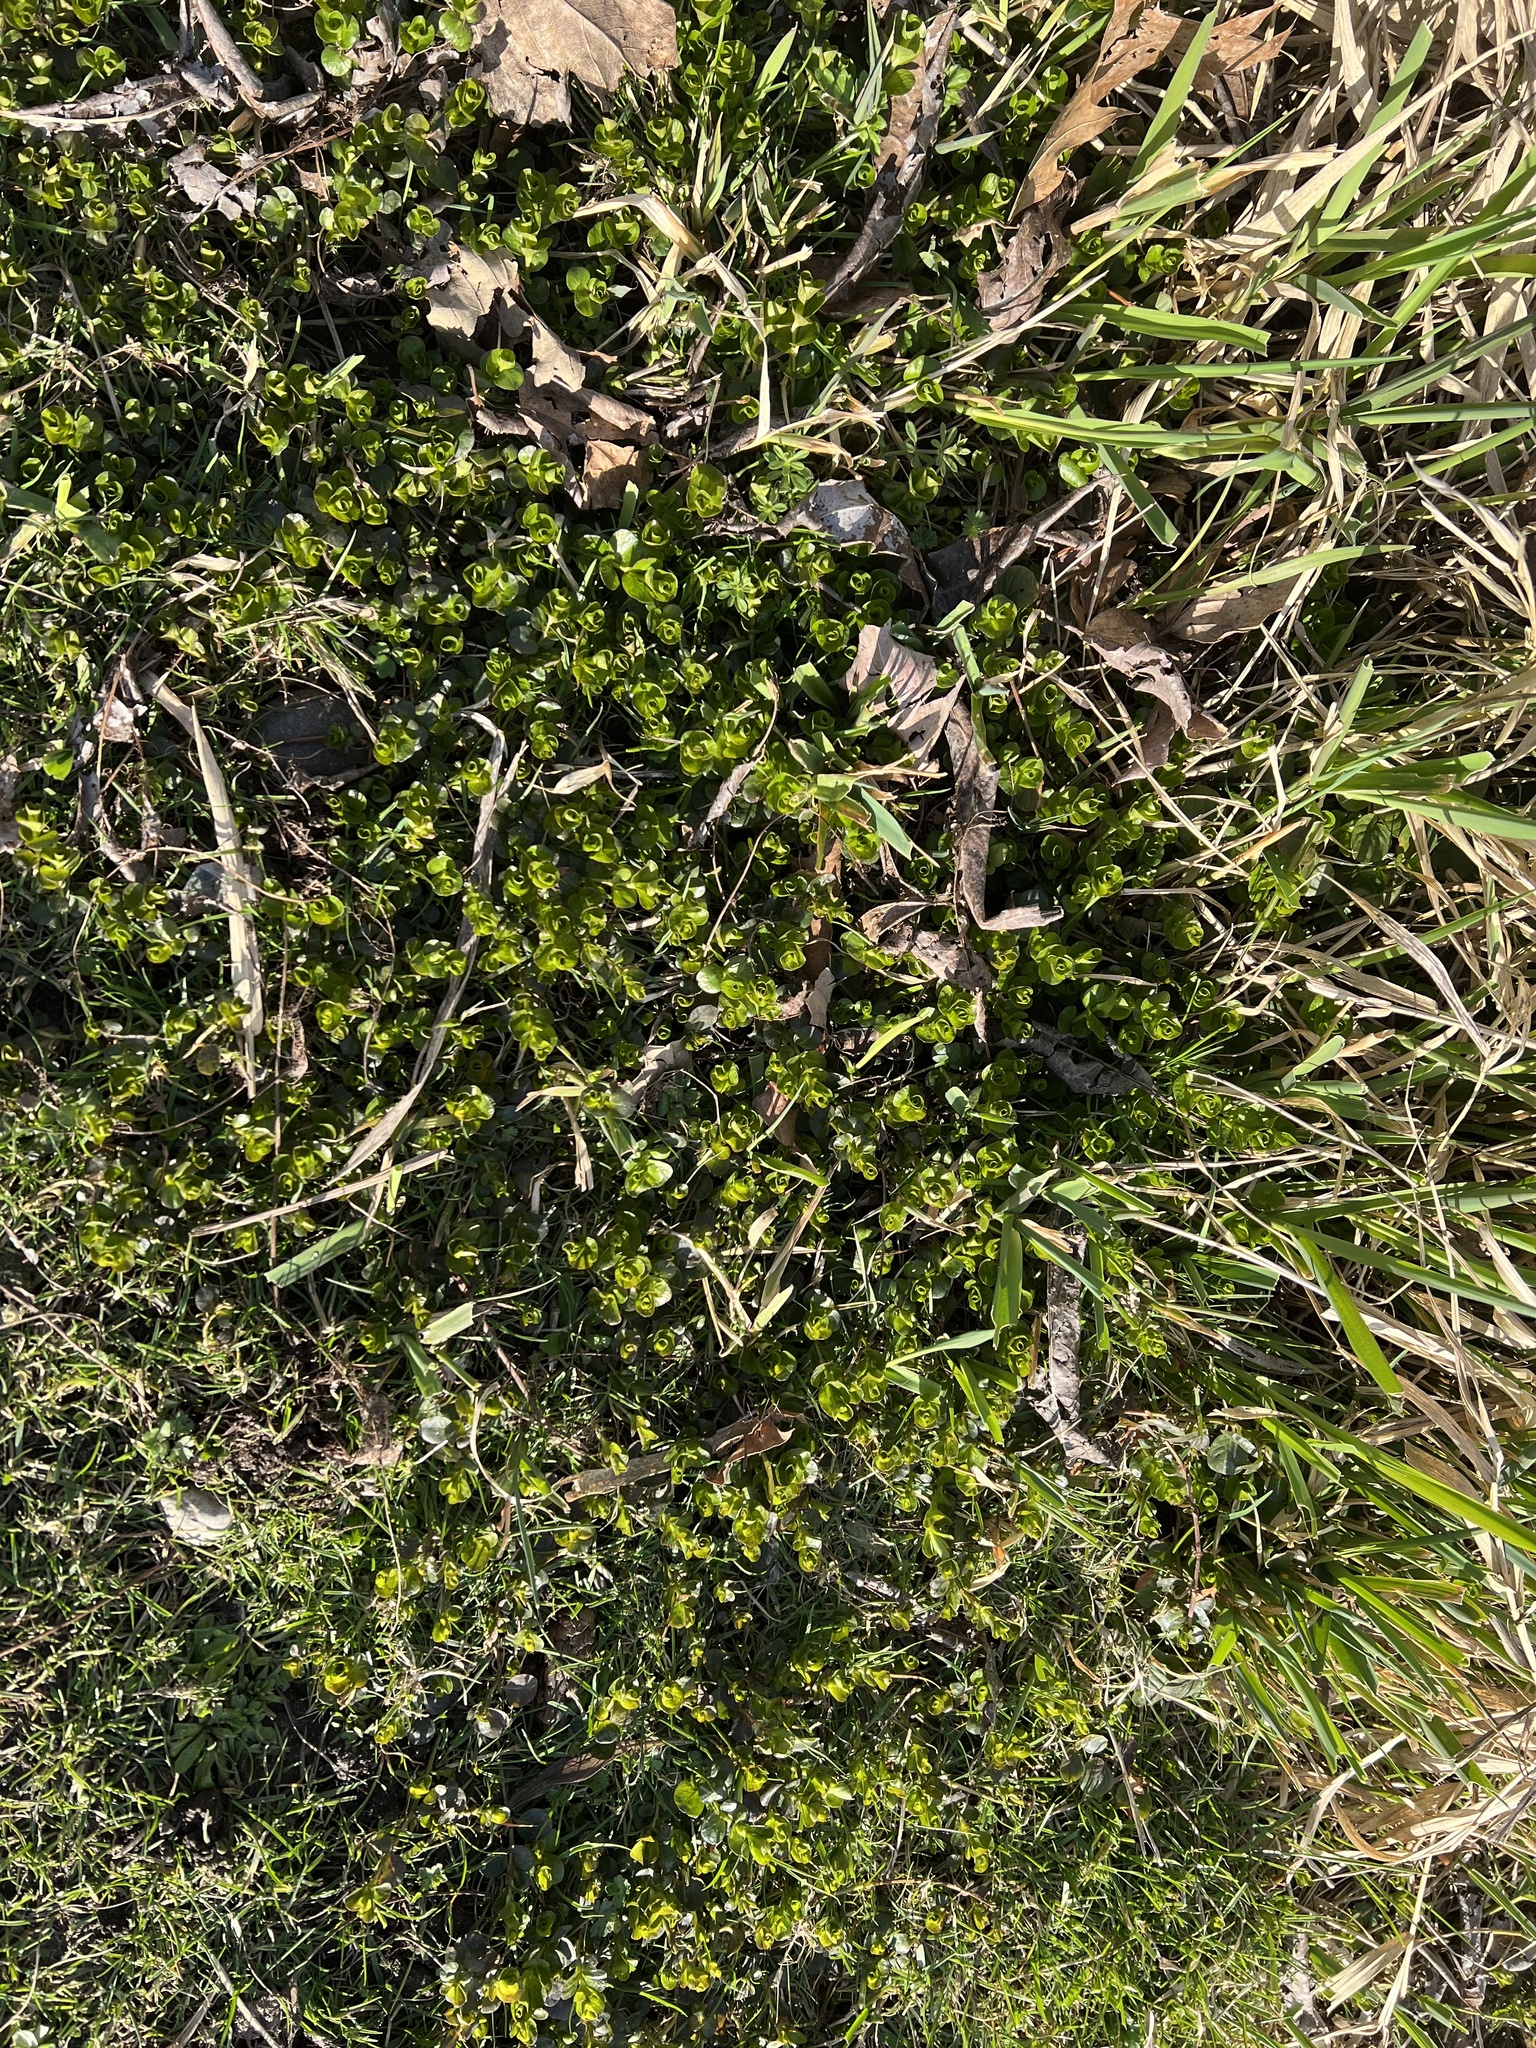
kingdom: Plantae
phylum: Tracheophyta
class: Magnoliopsida
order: Ericales
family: Primulaceae
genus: Lysimachia
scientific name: Lysimachia nummularia
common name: Moneywort
